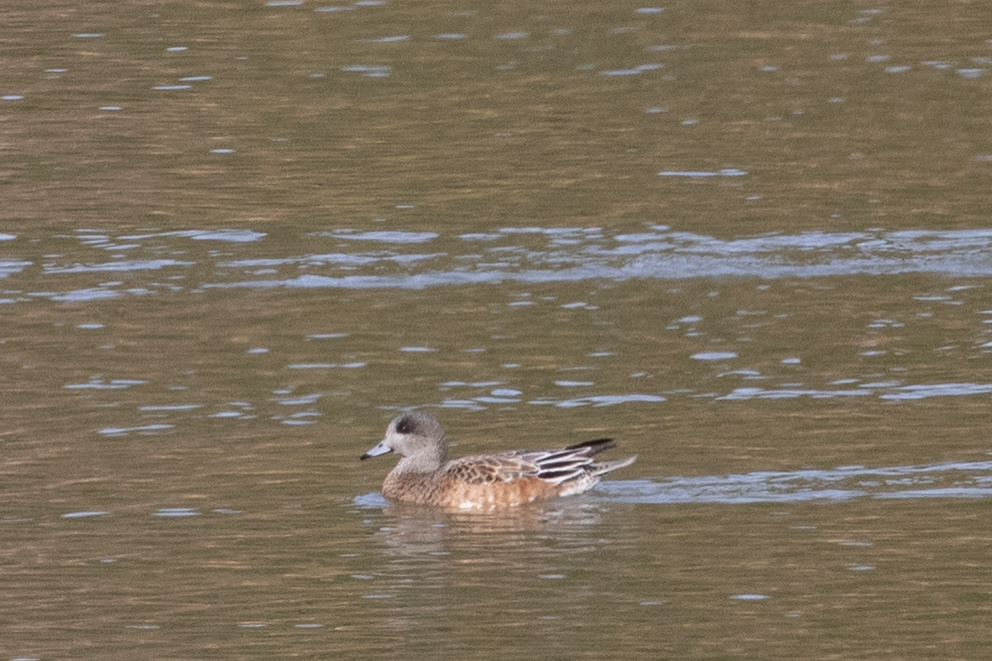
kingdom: Animalia
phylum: Chordata
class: Aves
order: Anseriformes
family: Anatidae
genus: Mareca
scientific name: Mareca americana
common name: American wigeon
